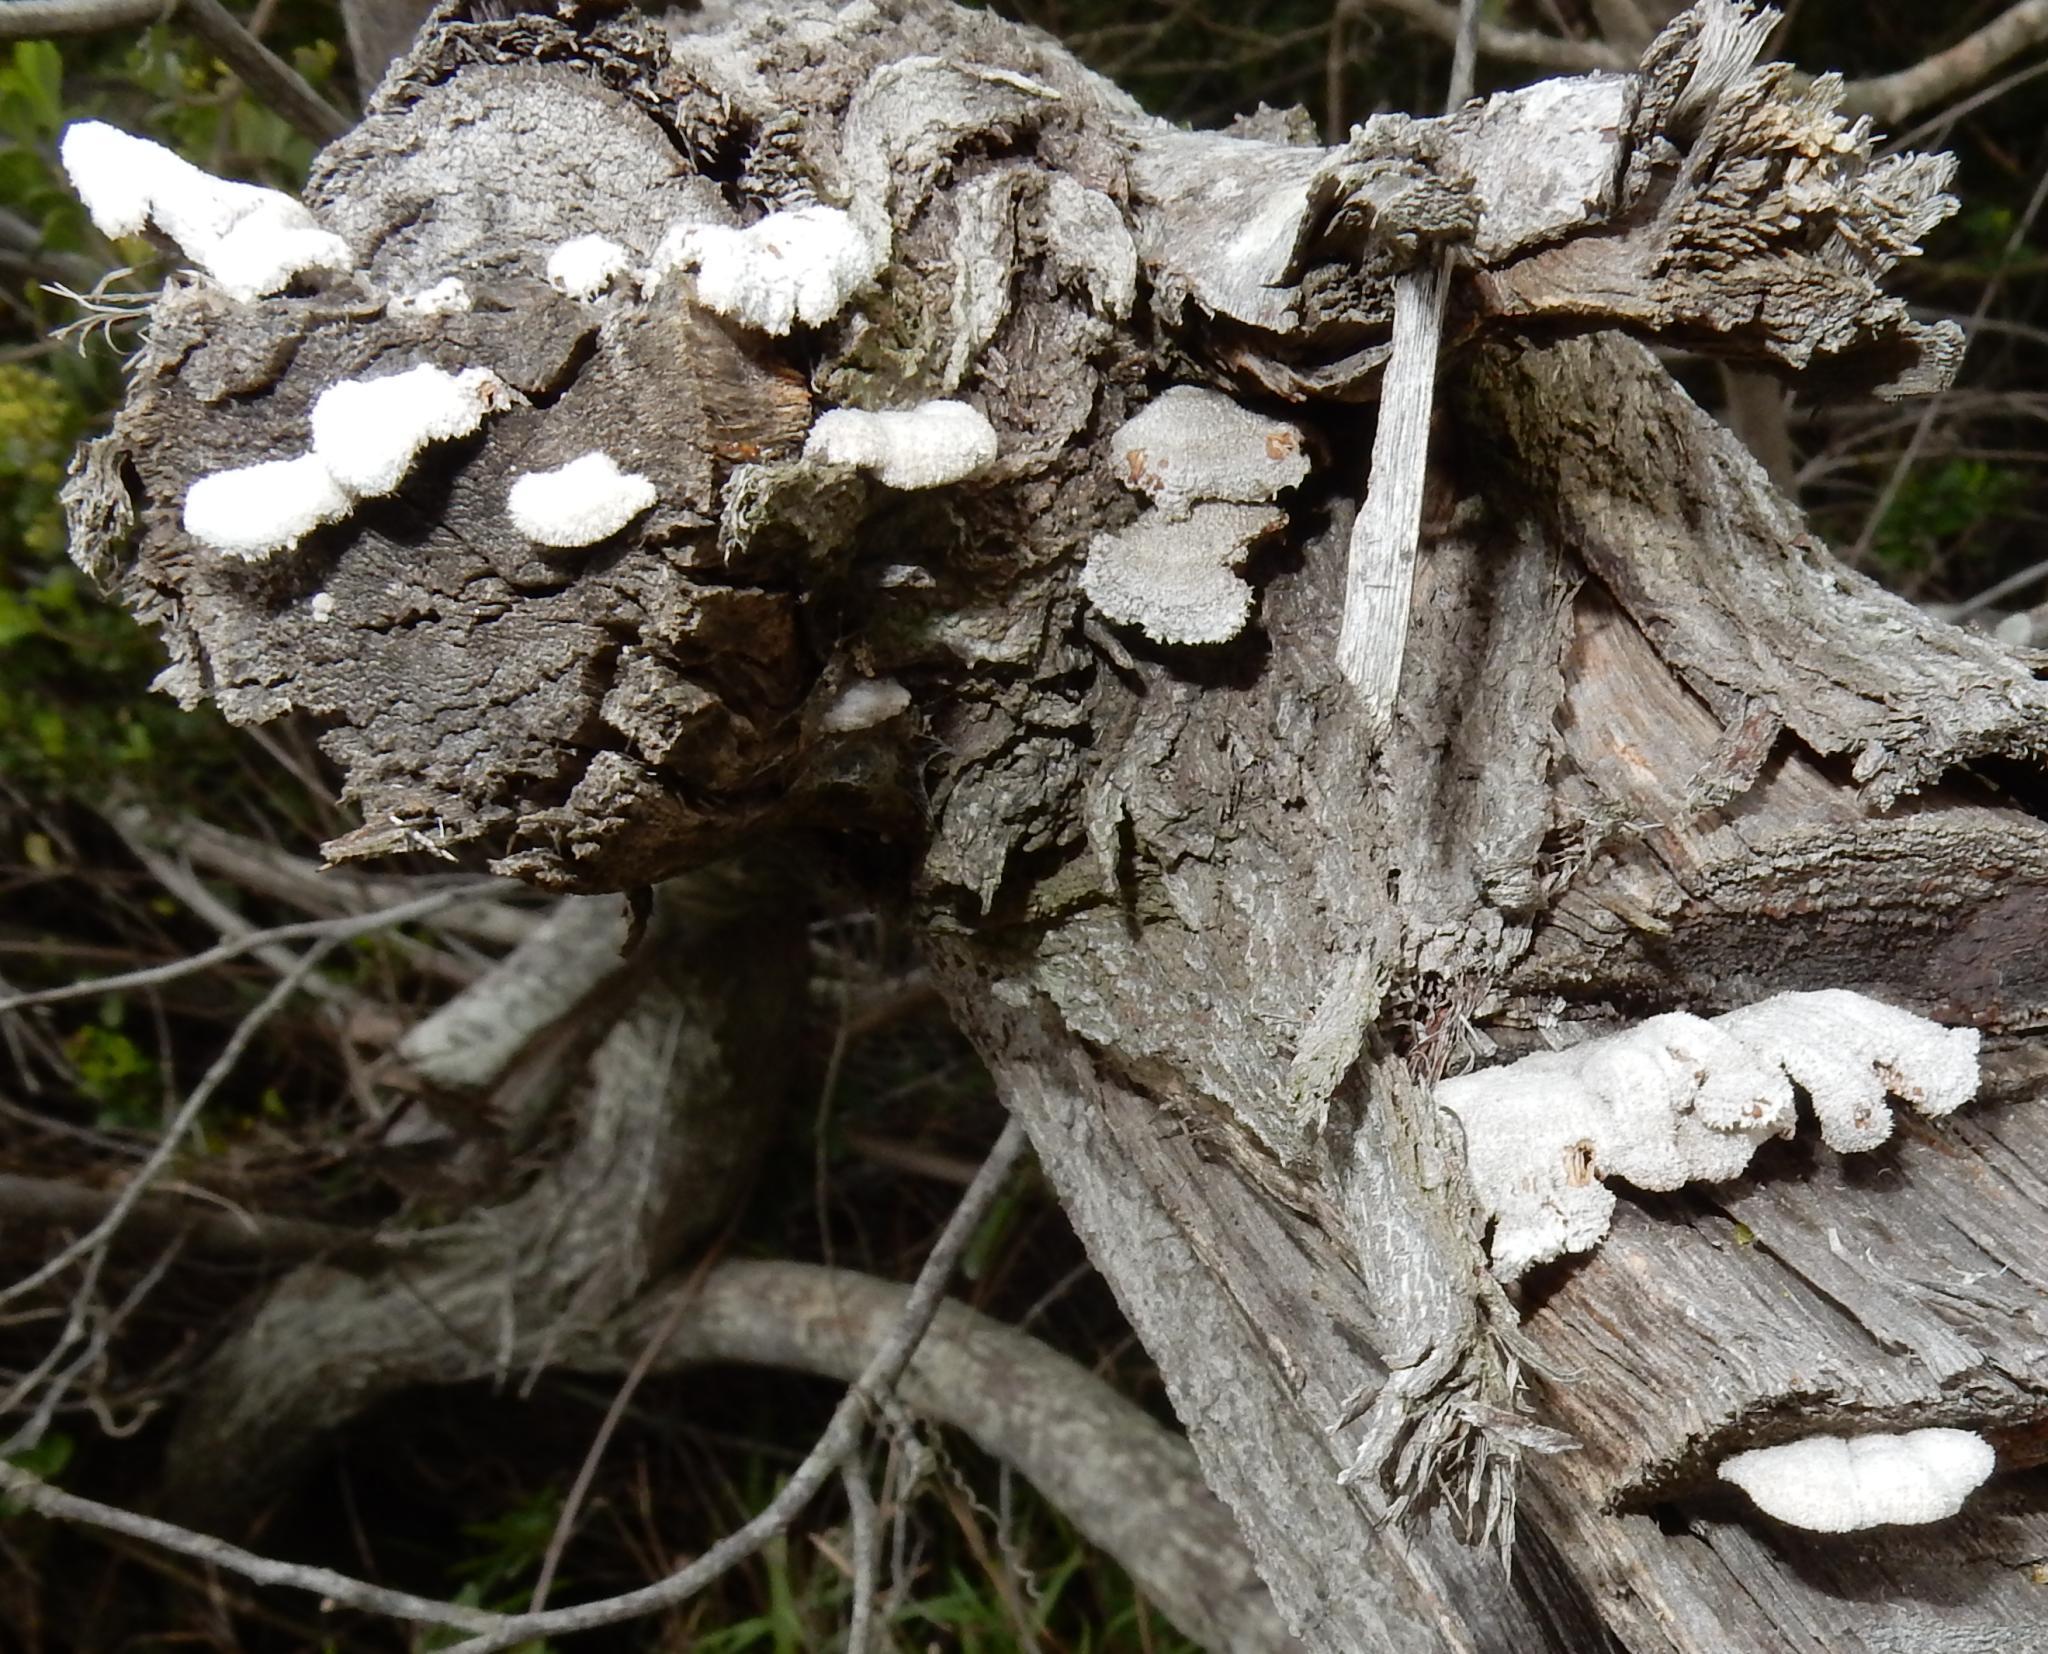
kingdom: Fungi
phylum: Basidiomycota
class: Agaricomycetes
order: Agaricales
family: Schizophyllaceae
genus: Schizophyllum
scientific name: Schizophyllum commune
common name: Common porecrust
